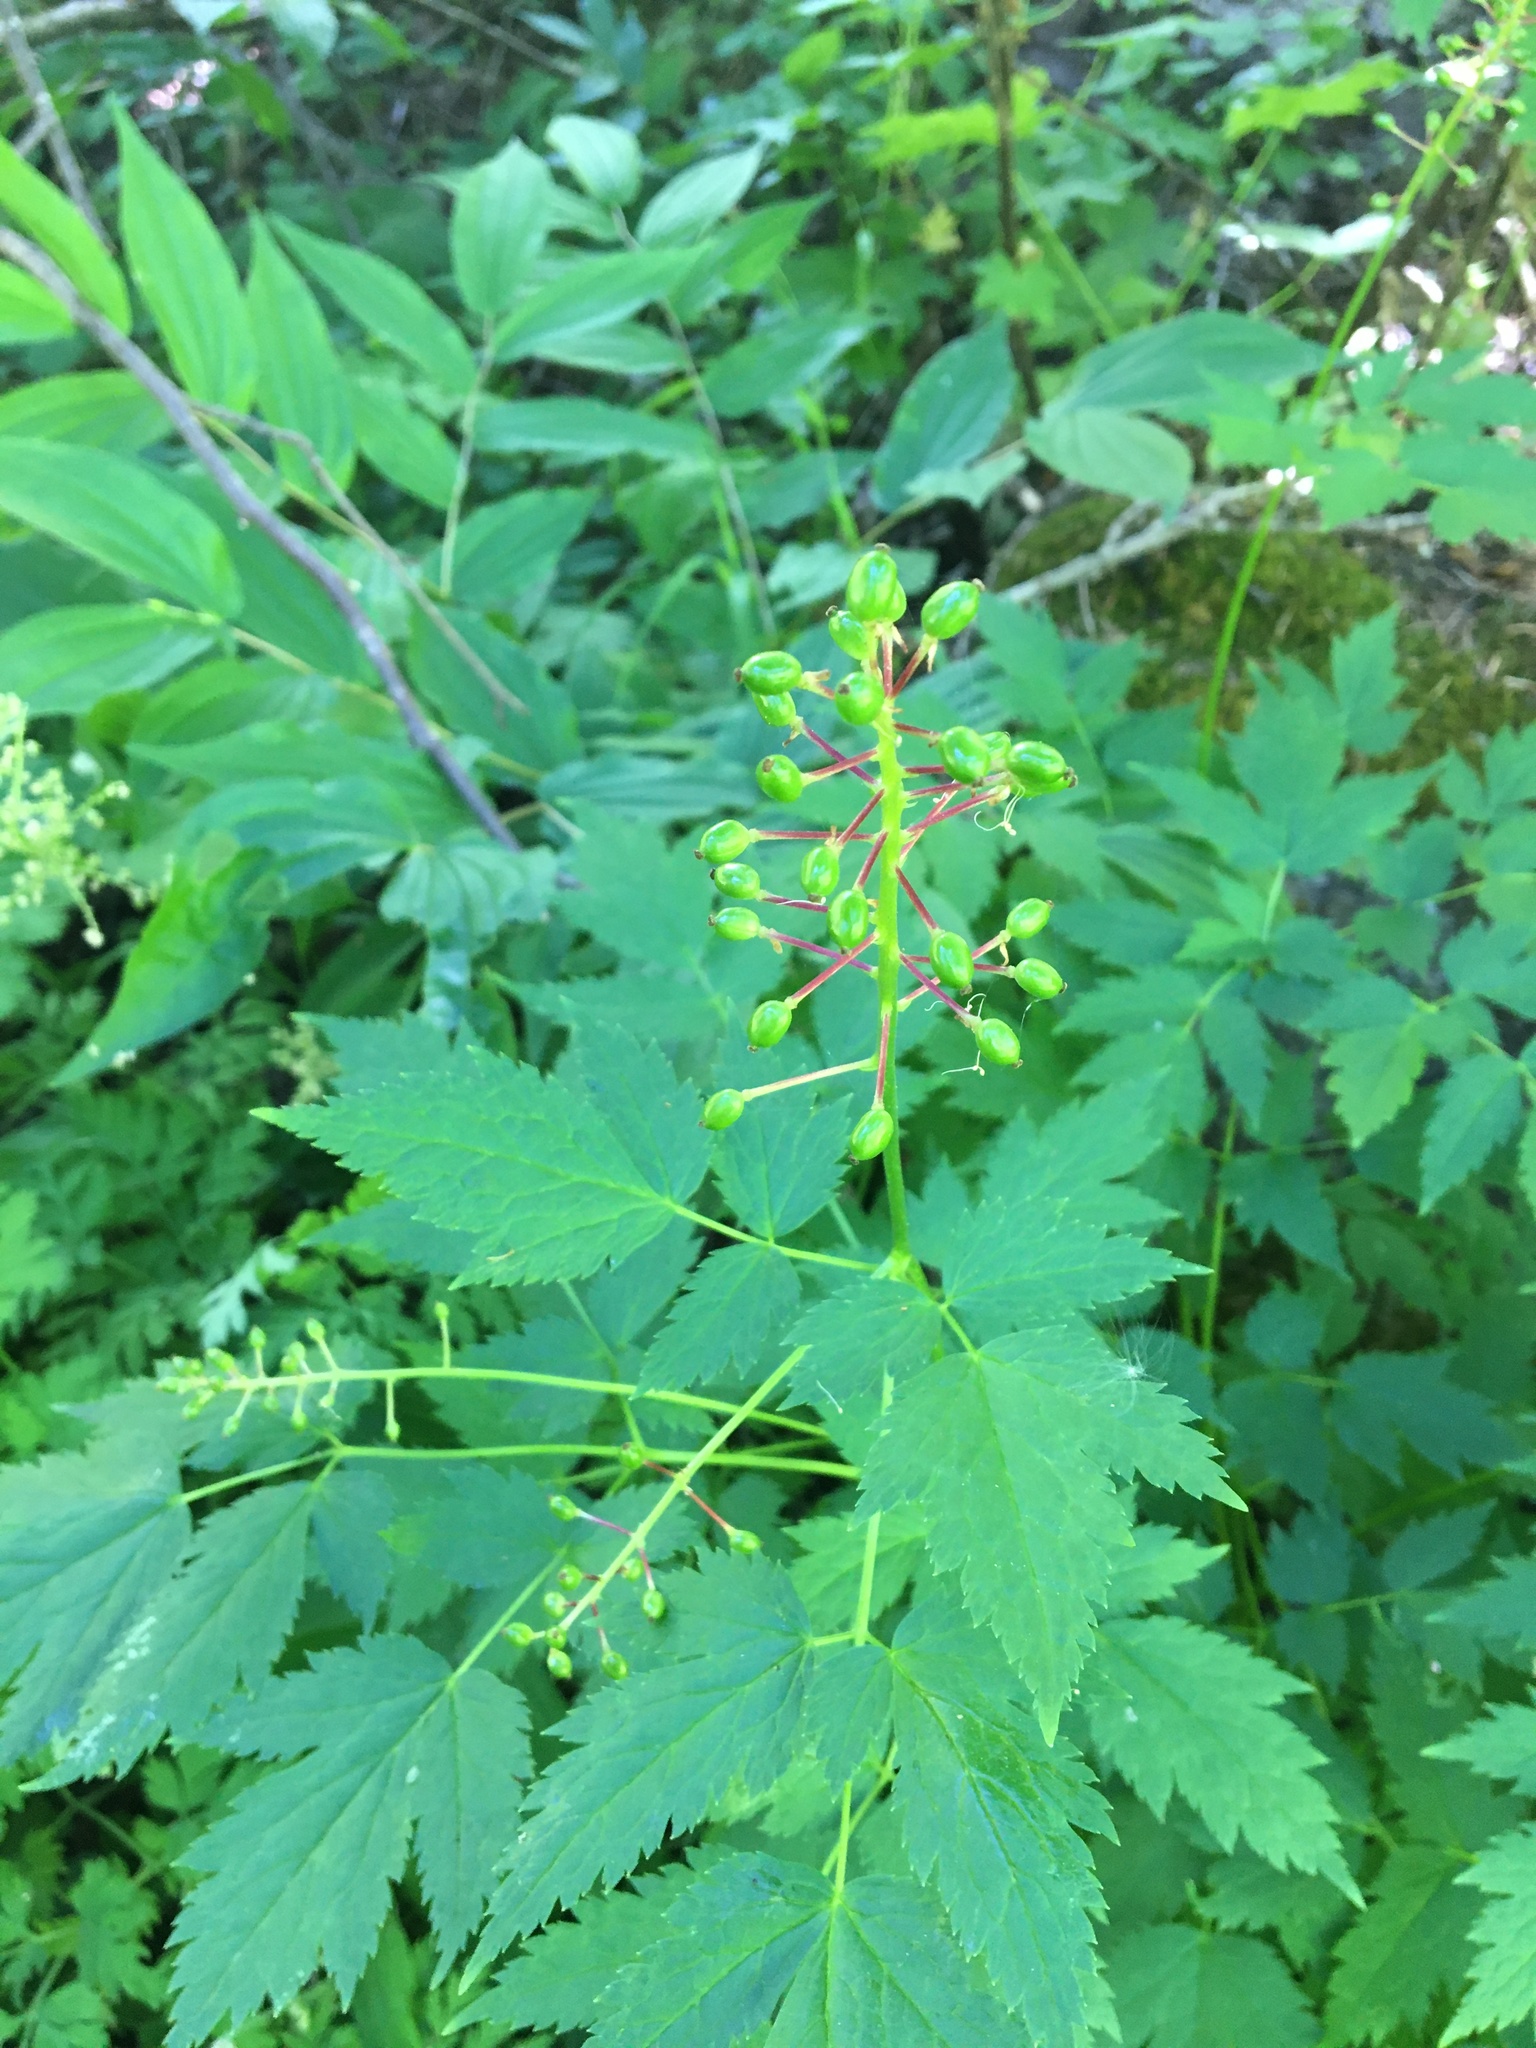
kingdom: Plantae
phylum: Tracheophyta
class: Magnoliopsida
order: Ranunculales
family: Ranunculaceae
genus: Actaea
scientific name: Actaea rubra
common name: Red baneberry
